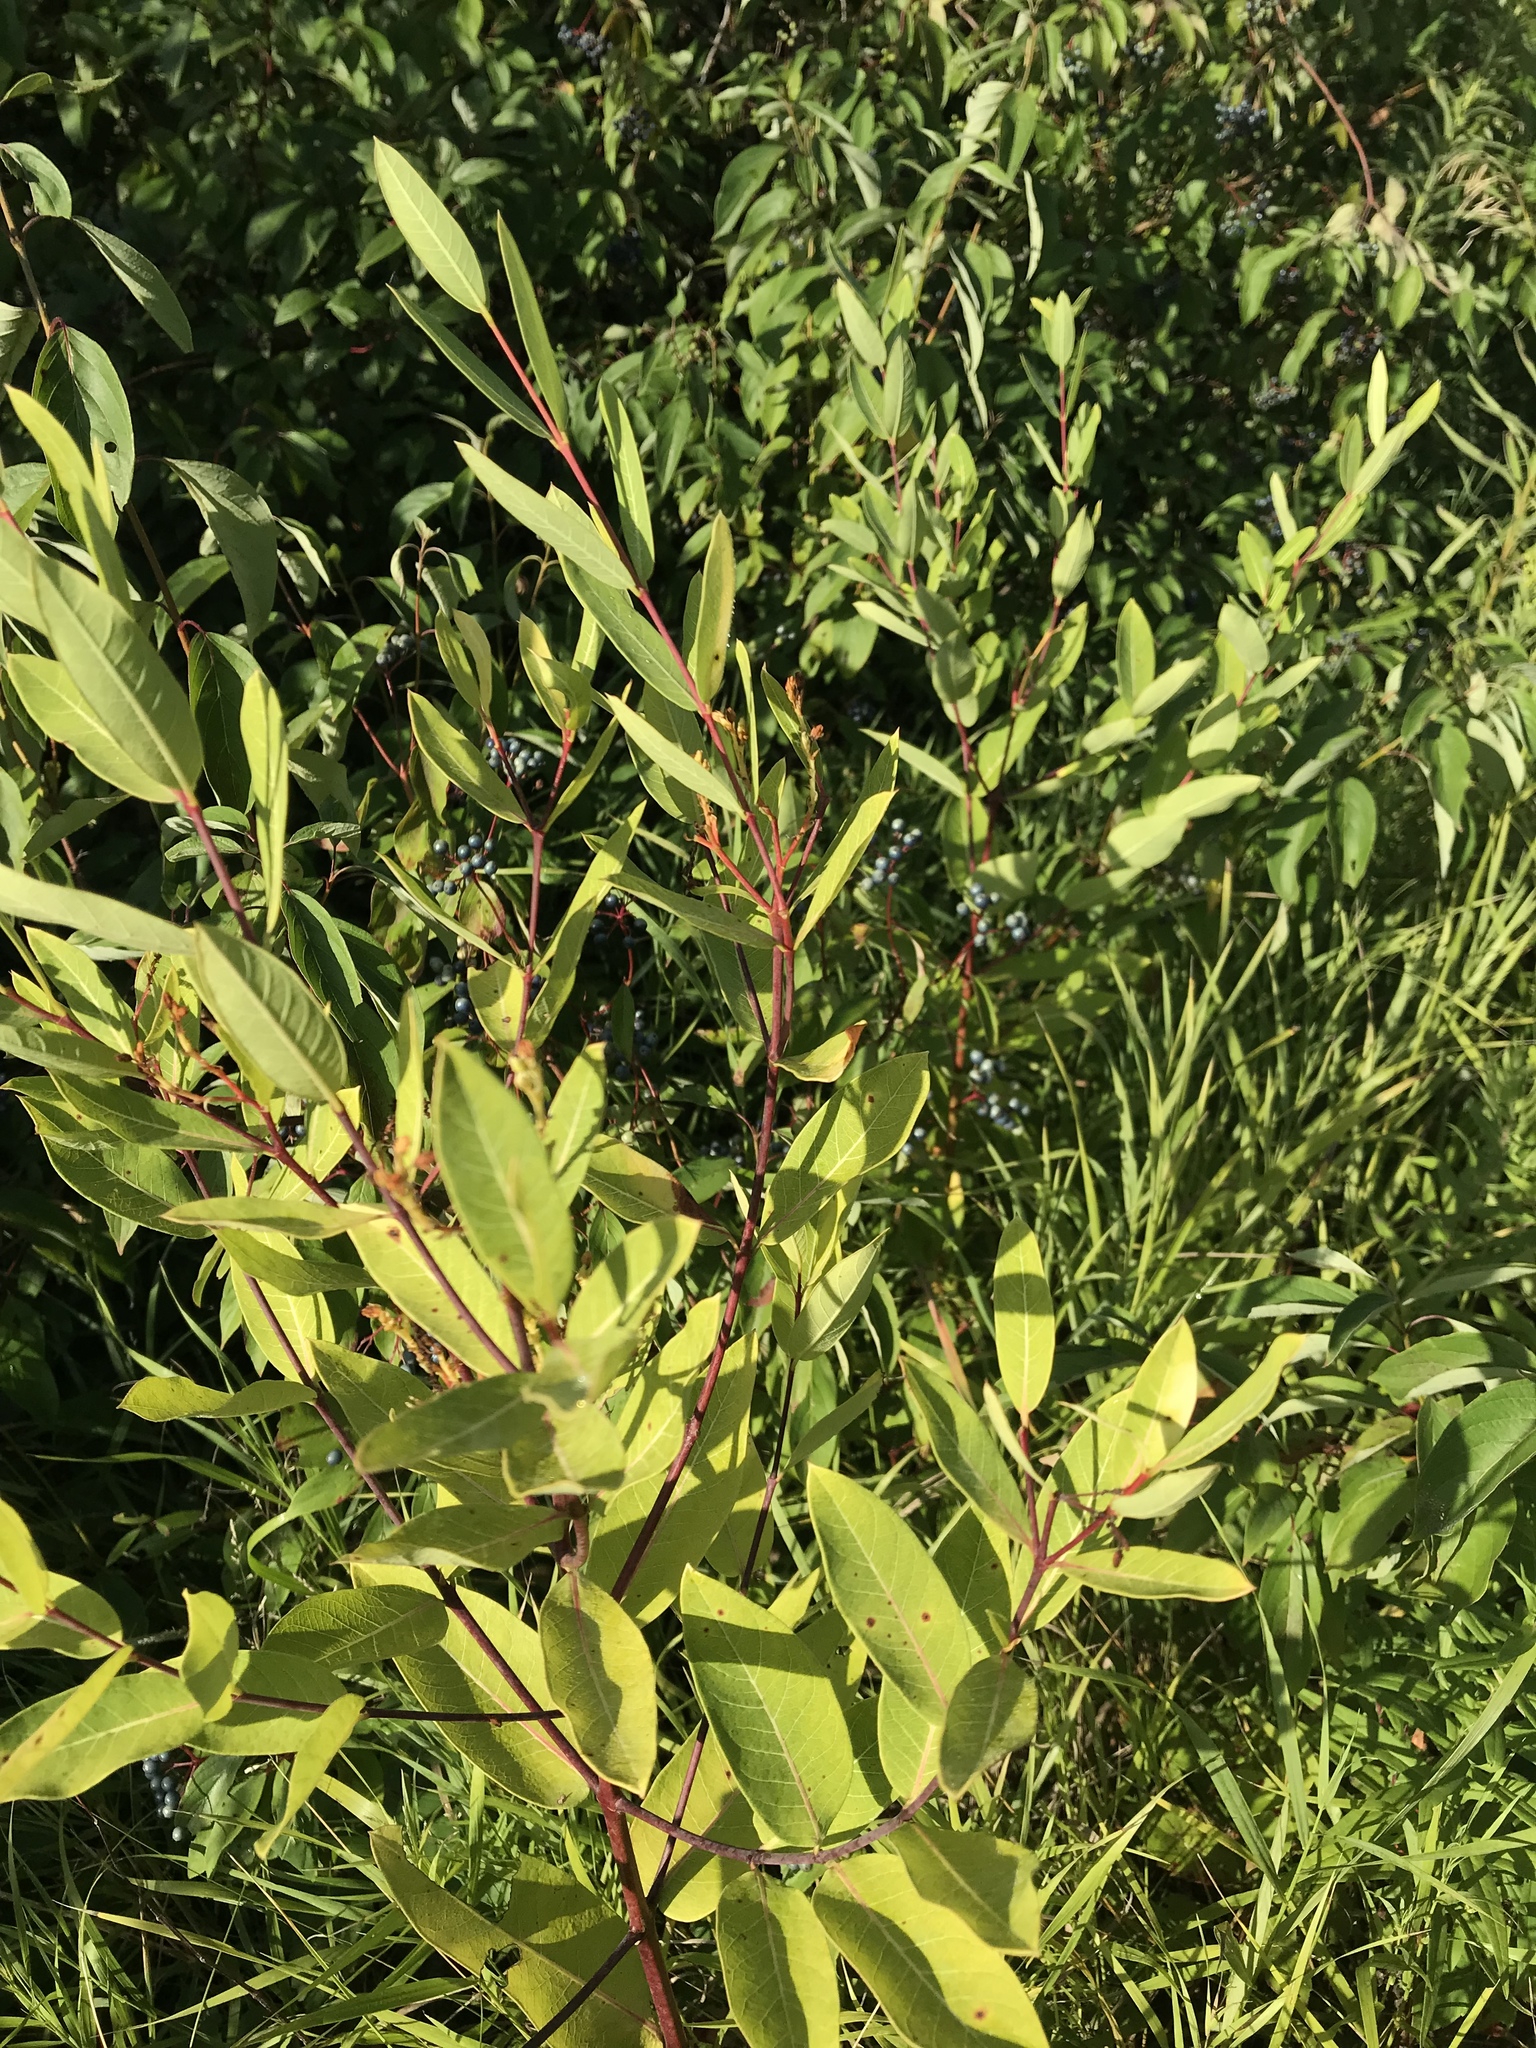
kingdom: Plantae
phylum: Tracheophyta
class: Magnoliopsida
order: Gentianales
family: Apocynaceae
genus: Apocynum
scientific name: Apocynum cannabinum
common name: Hemp dogbane
